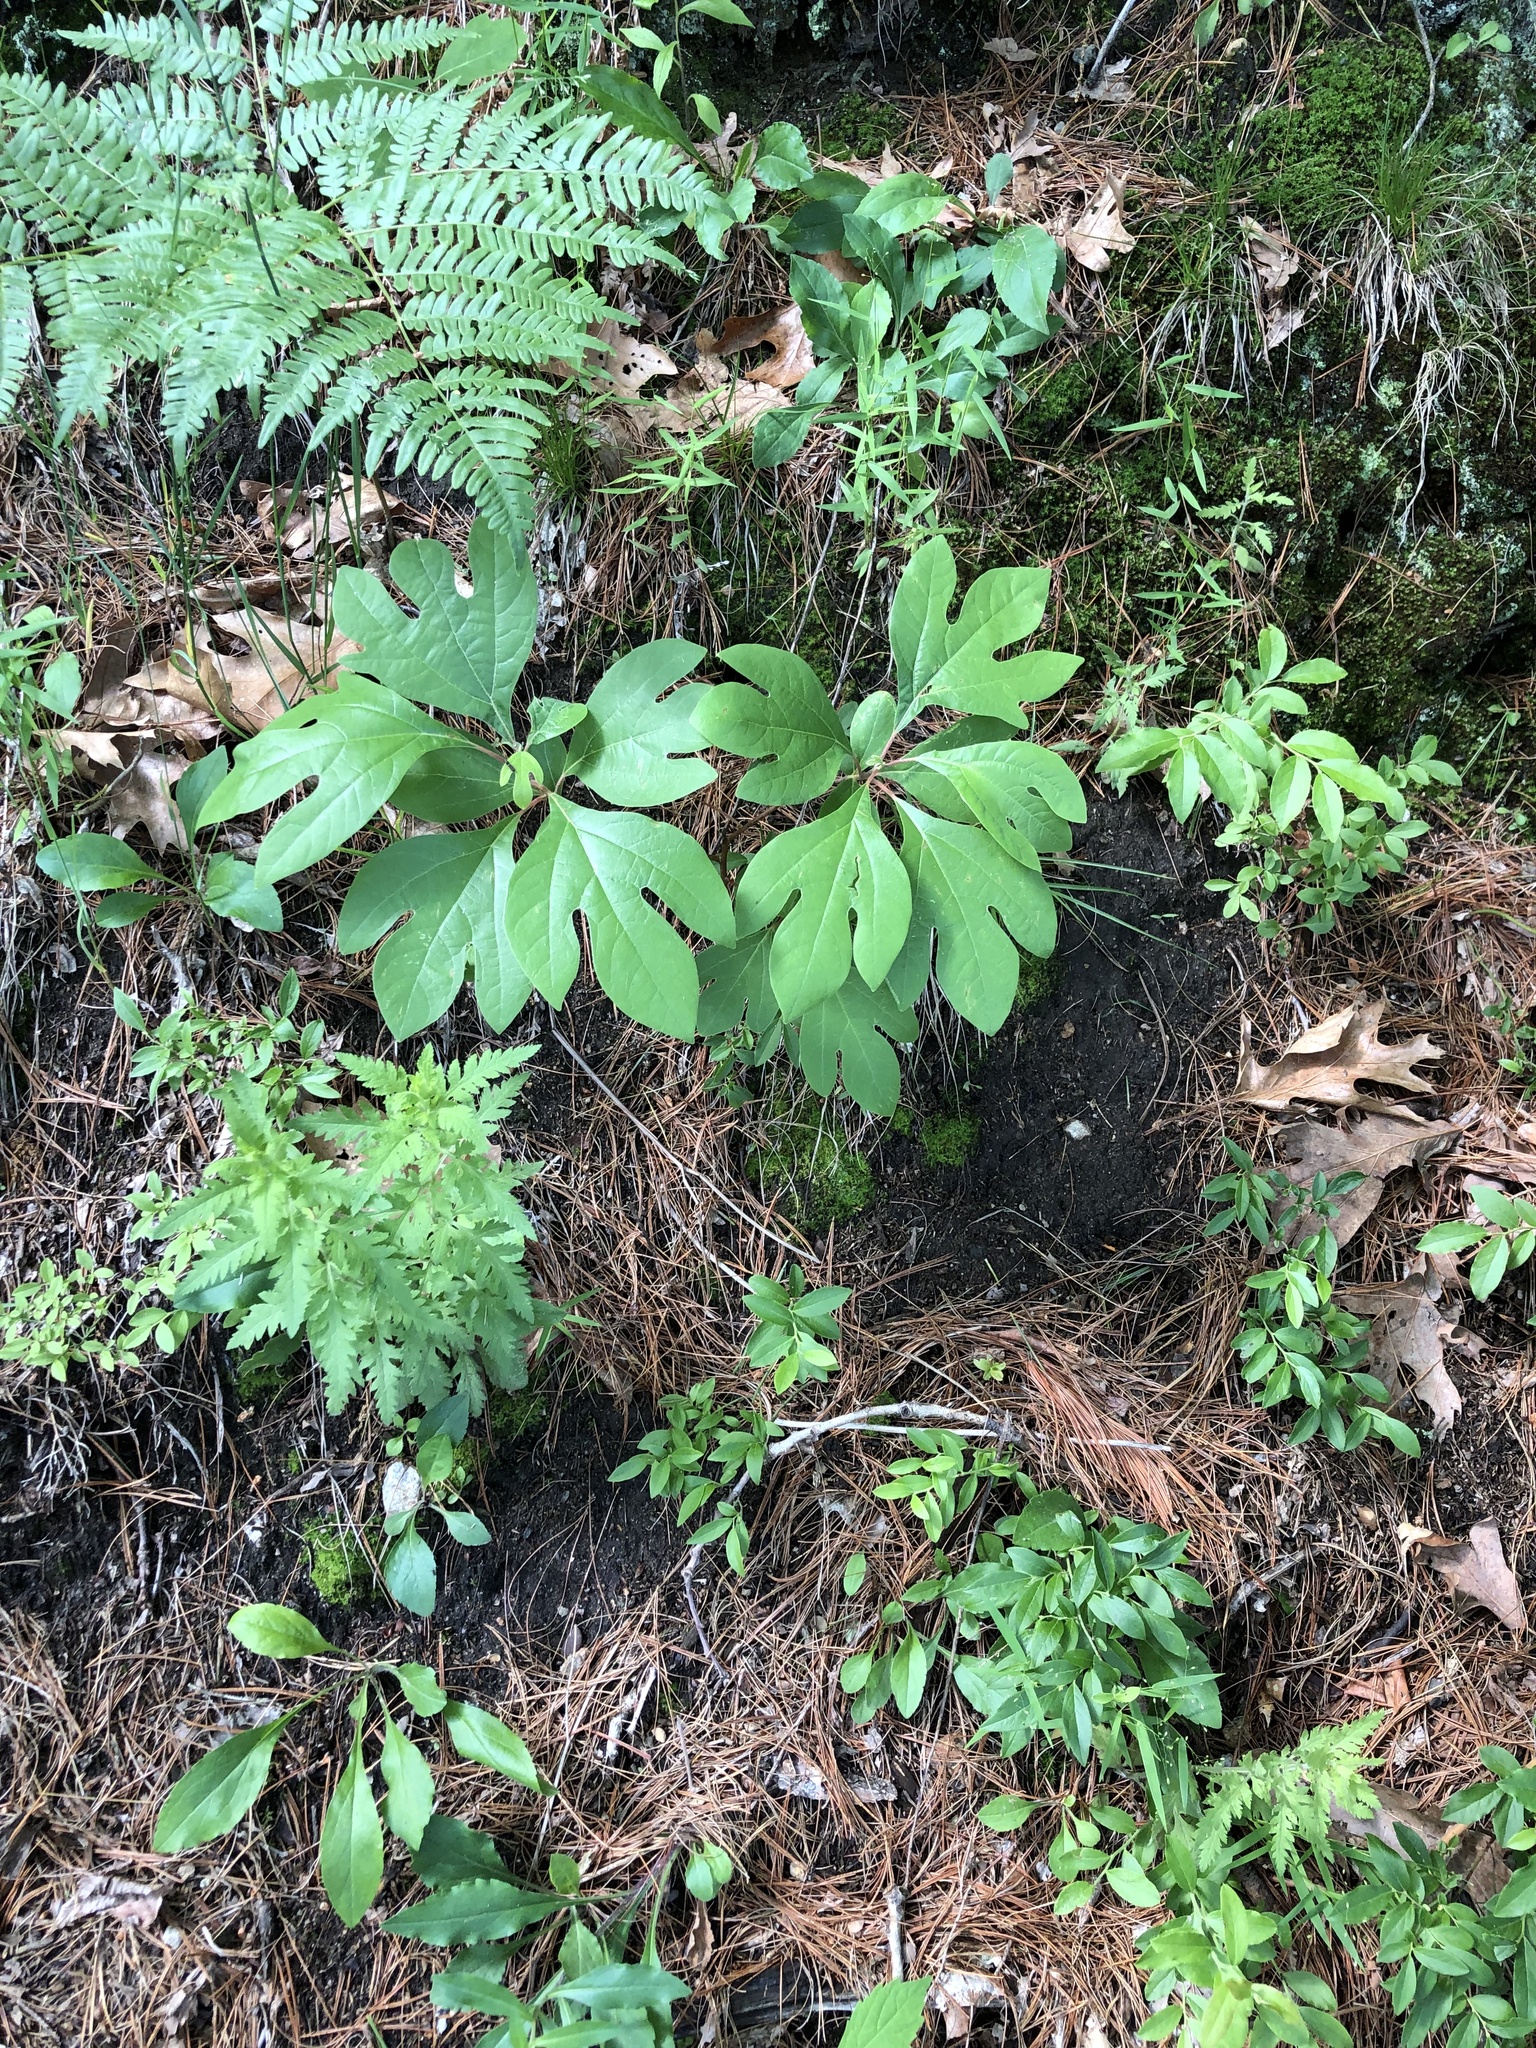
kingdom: Plantae
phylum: Tracheophyta
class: Magnoliopsida
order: Laurales
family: Lauraceae
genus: Sassafras
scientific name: Sassafras albidum
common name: Sassafras
